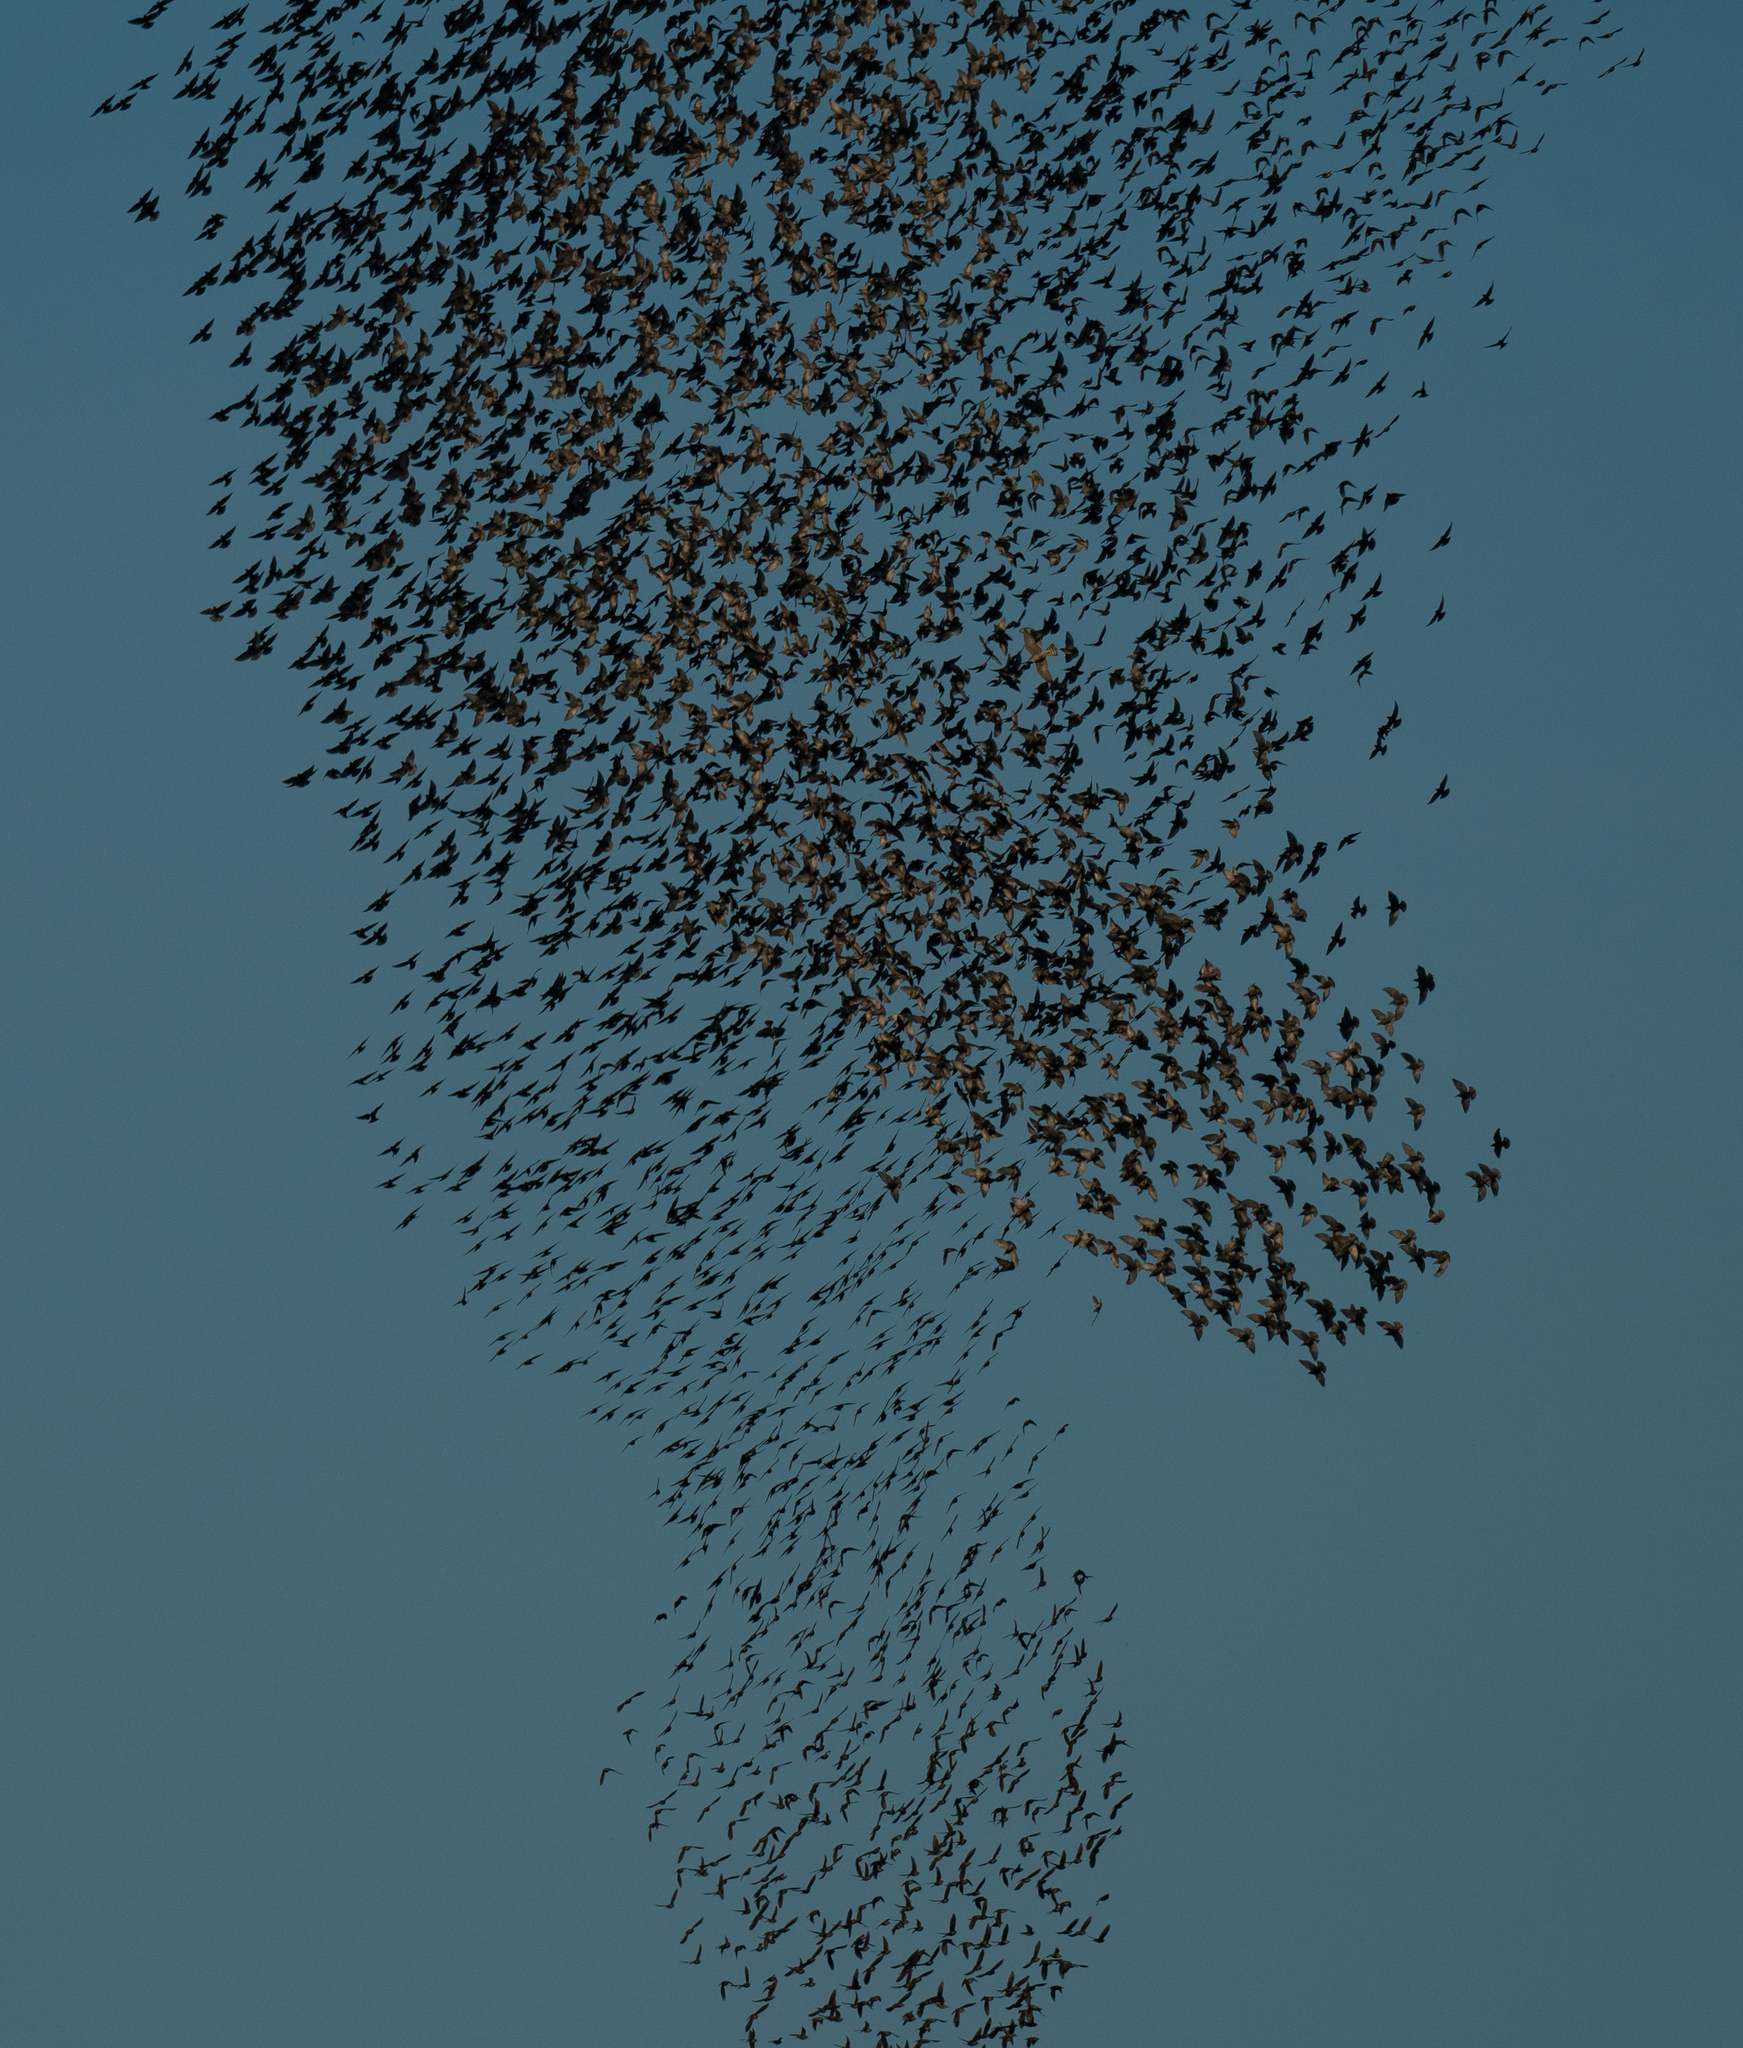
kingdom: Animalia
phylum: Chordata
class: Aves
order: Passeriformes
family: Sturnidae
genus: Sturnus
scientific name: Sturnus vulgaris
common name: Common starling
